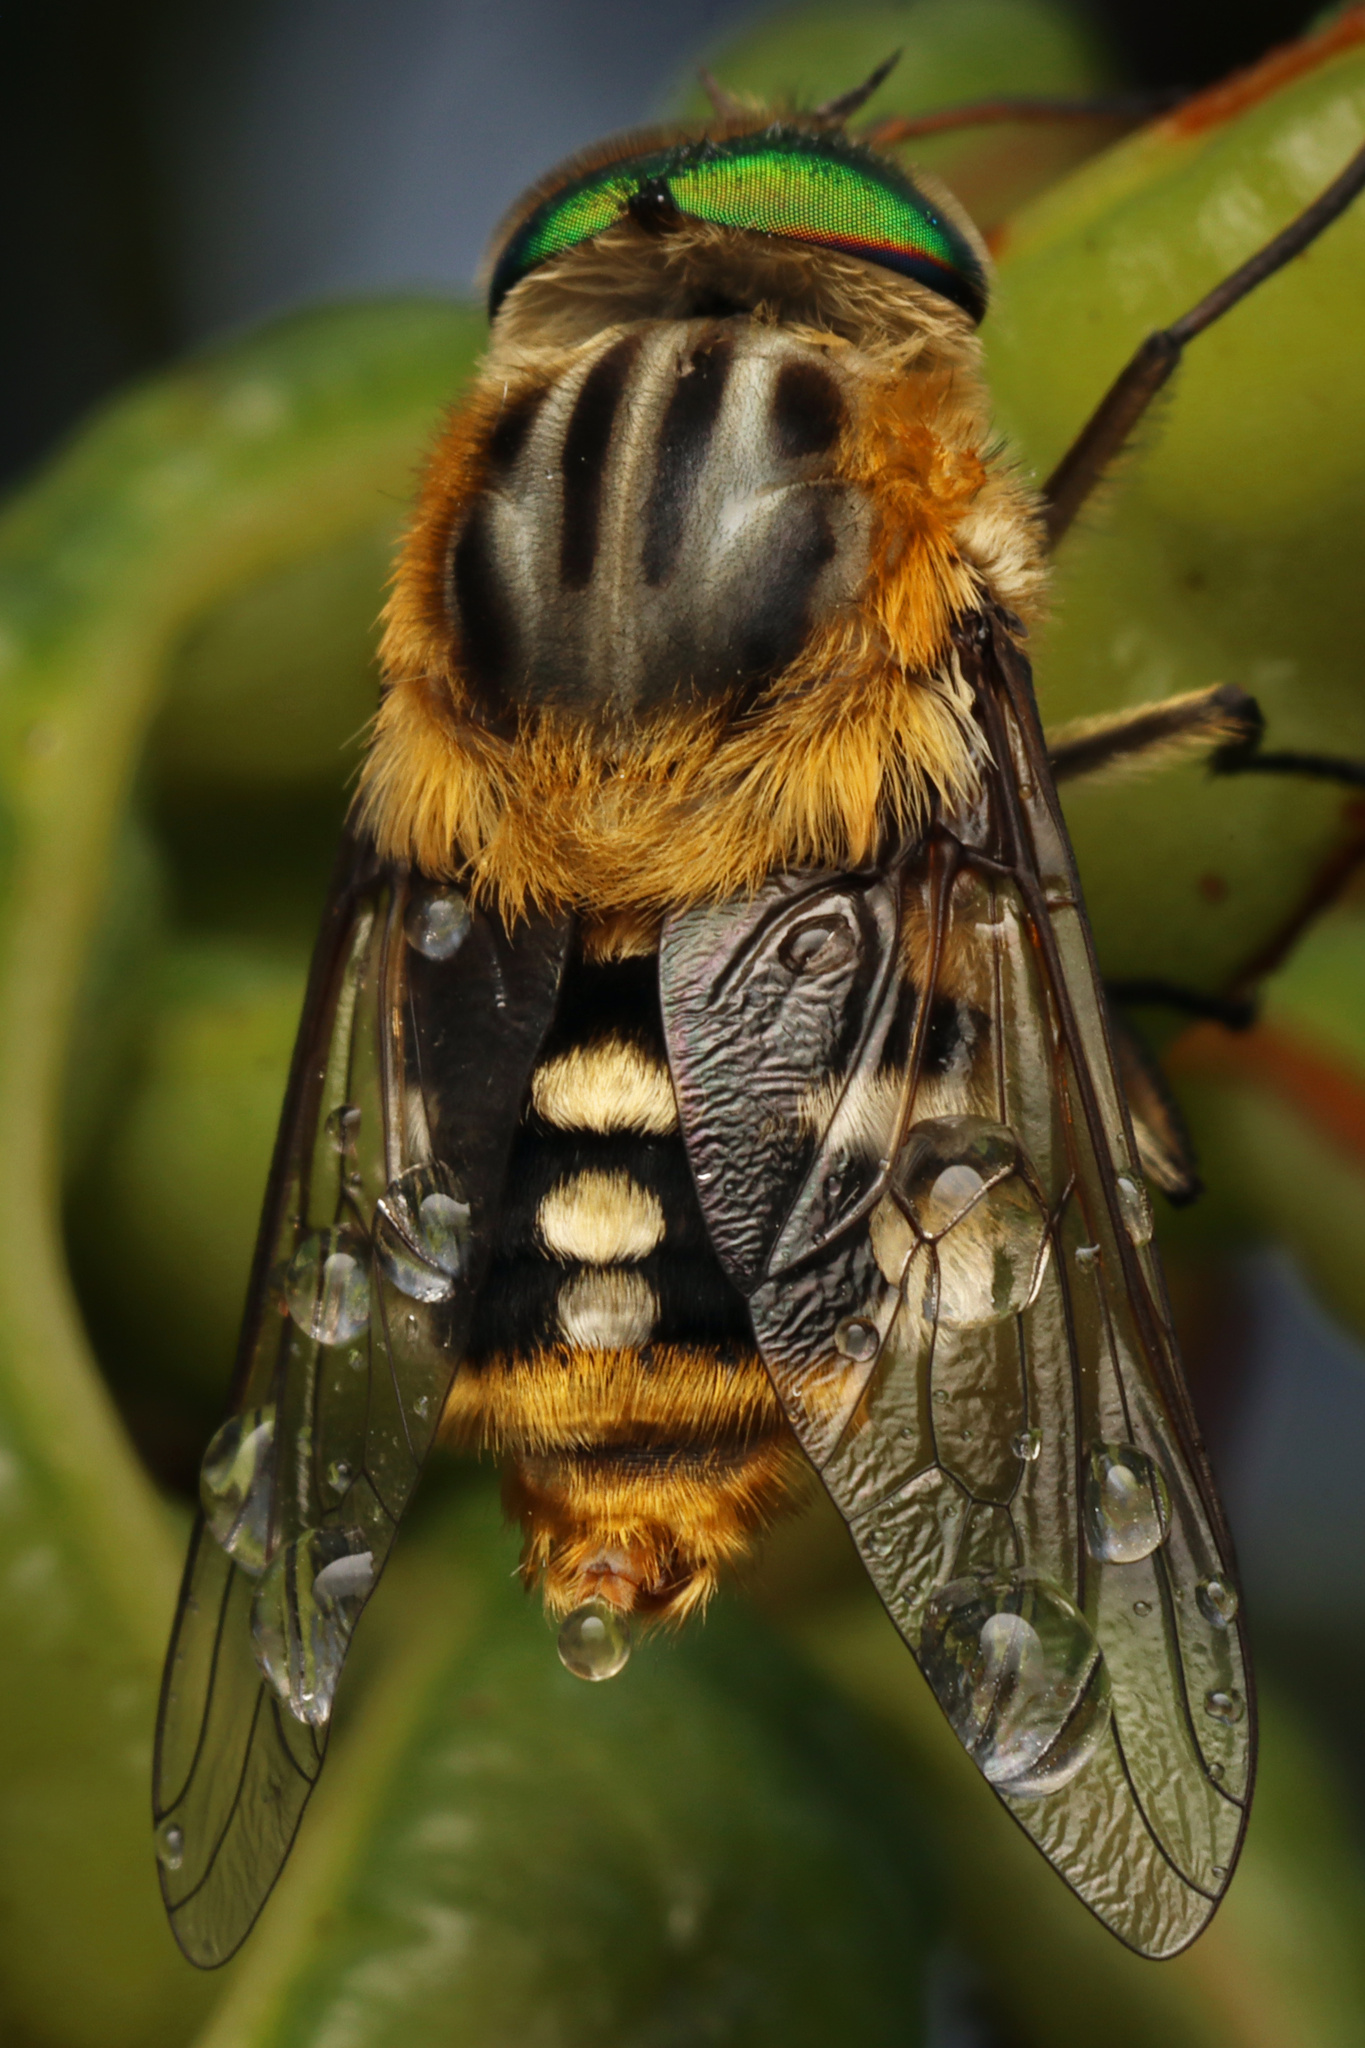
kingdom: Animalia
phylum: Arthropoda
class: Insecta
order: Diptera
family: Tabanidae
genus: Scaptia
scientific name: Scaptia auriflua
